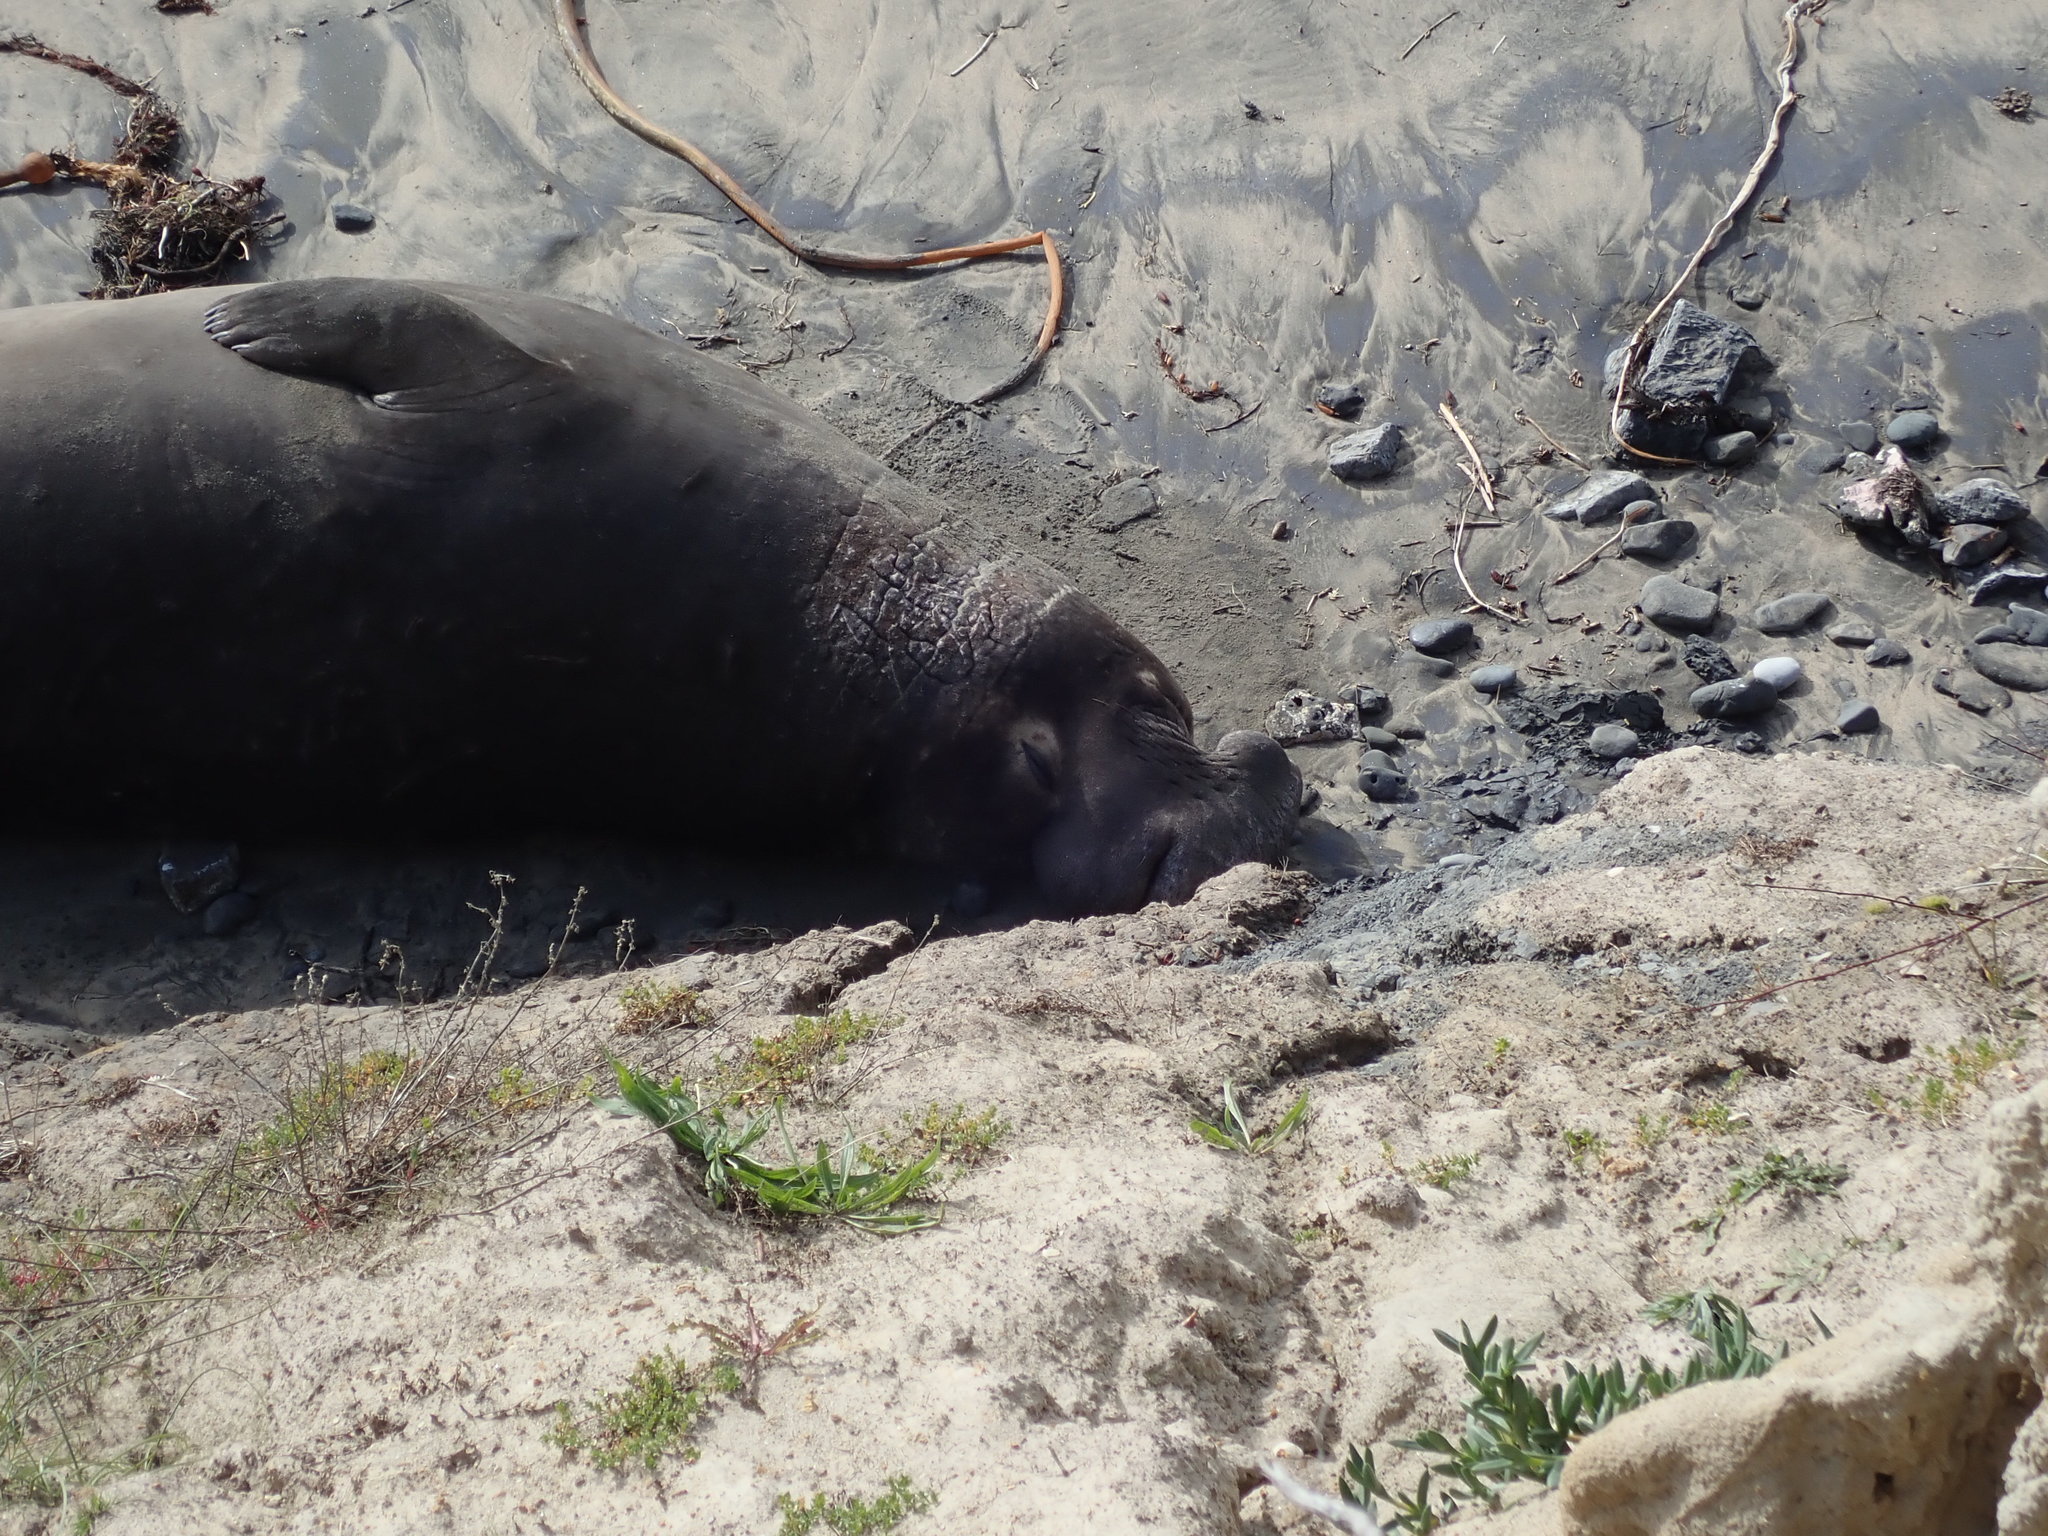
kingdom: Animalia
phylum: Chordata
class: Mammalia
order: Carnivora
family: Phocidae
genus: Mirounga
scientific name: Mirounga angustirostris
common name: Northern elephant seal
